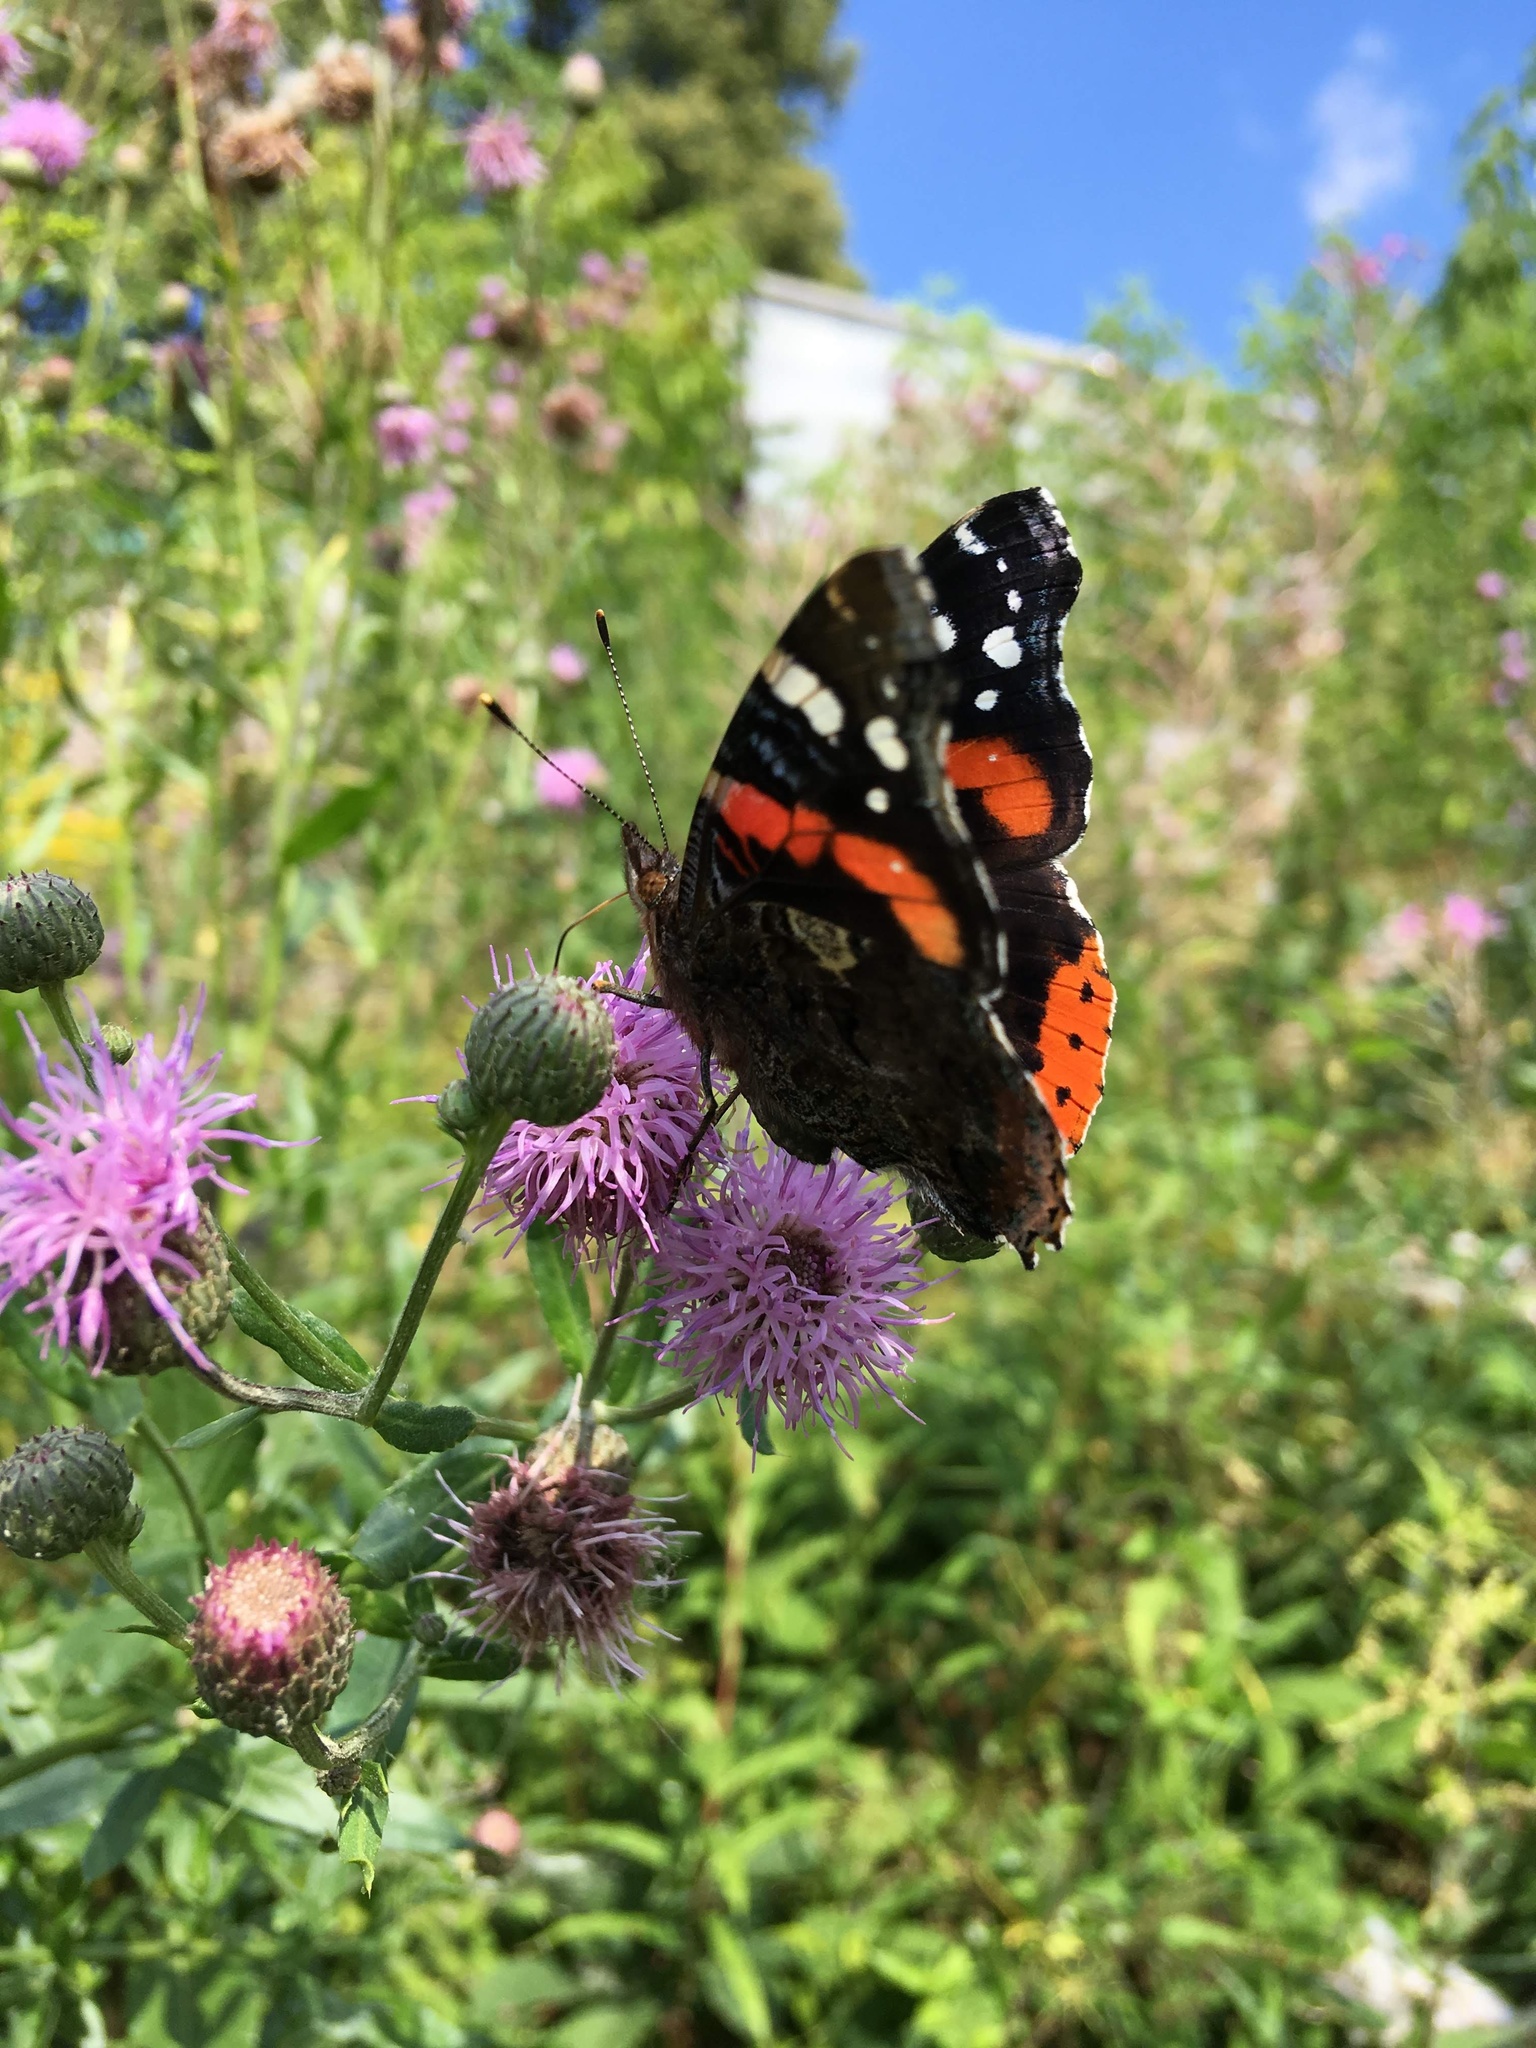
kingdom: Animalia
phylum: Arthropoda
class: Insecta
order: Lepidoptera
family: Nymphalidae
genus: Vanessa
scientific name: Vanessa atalanta
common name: Red admiral
